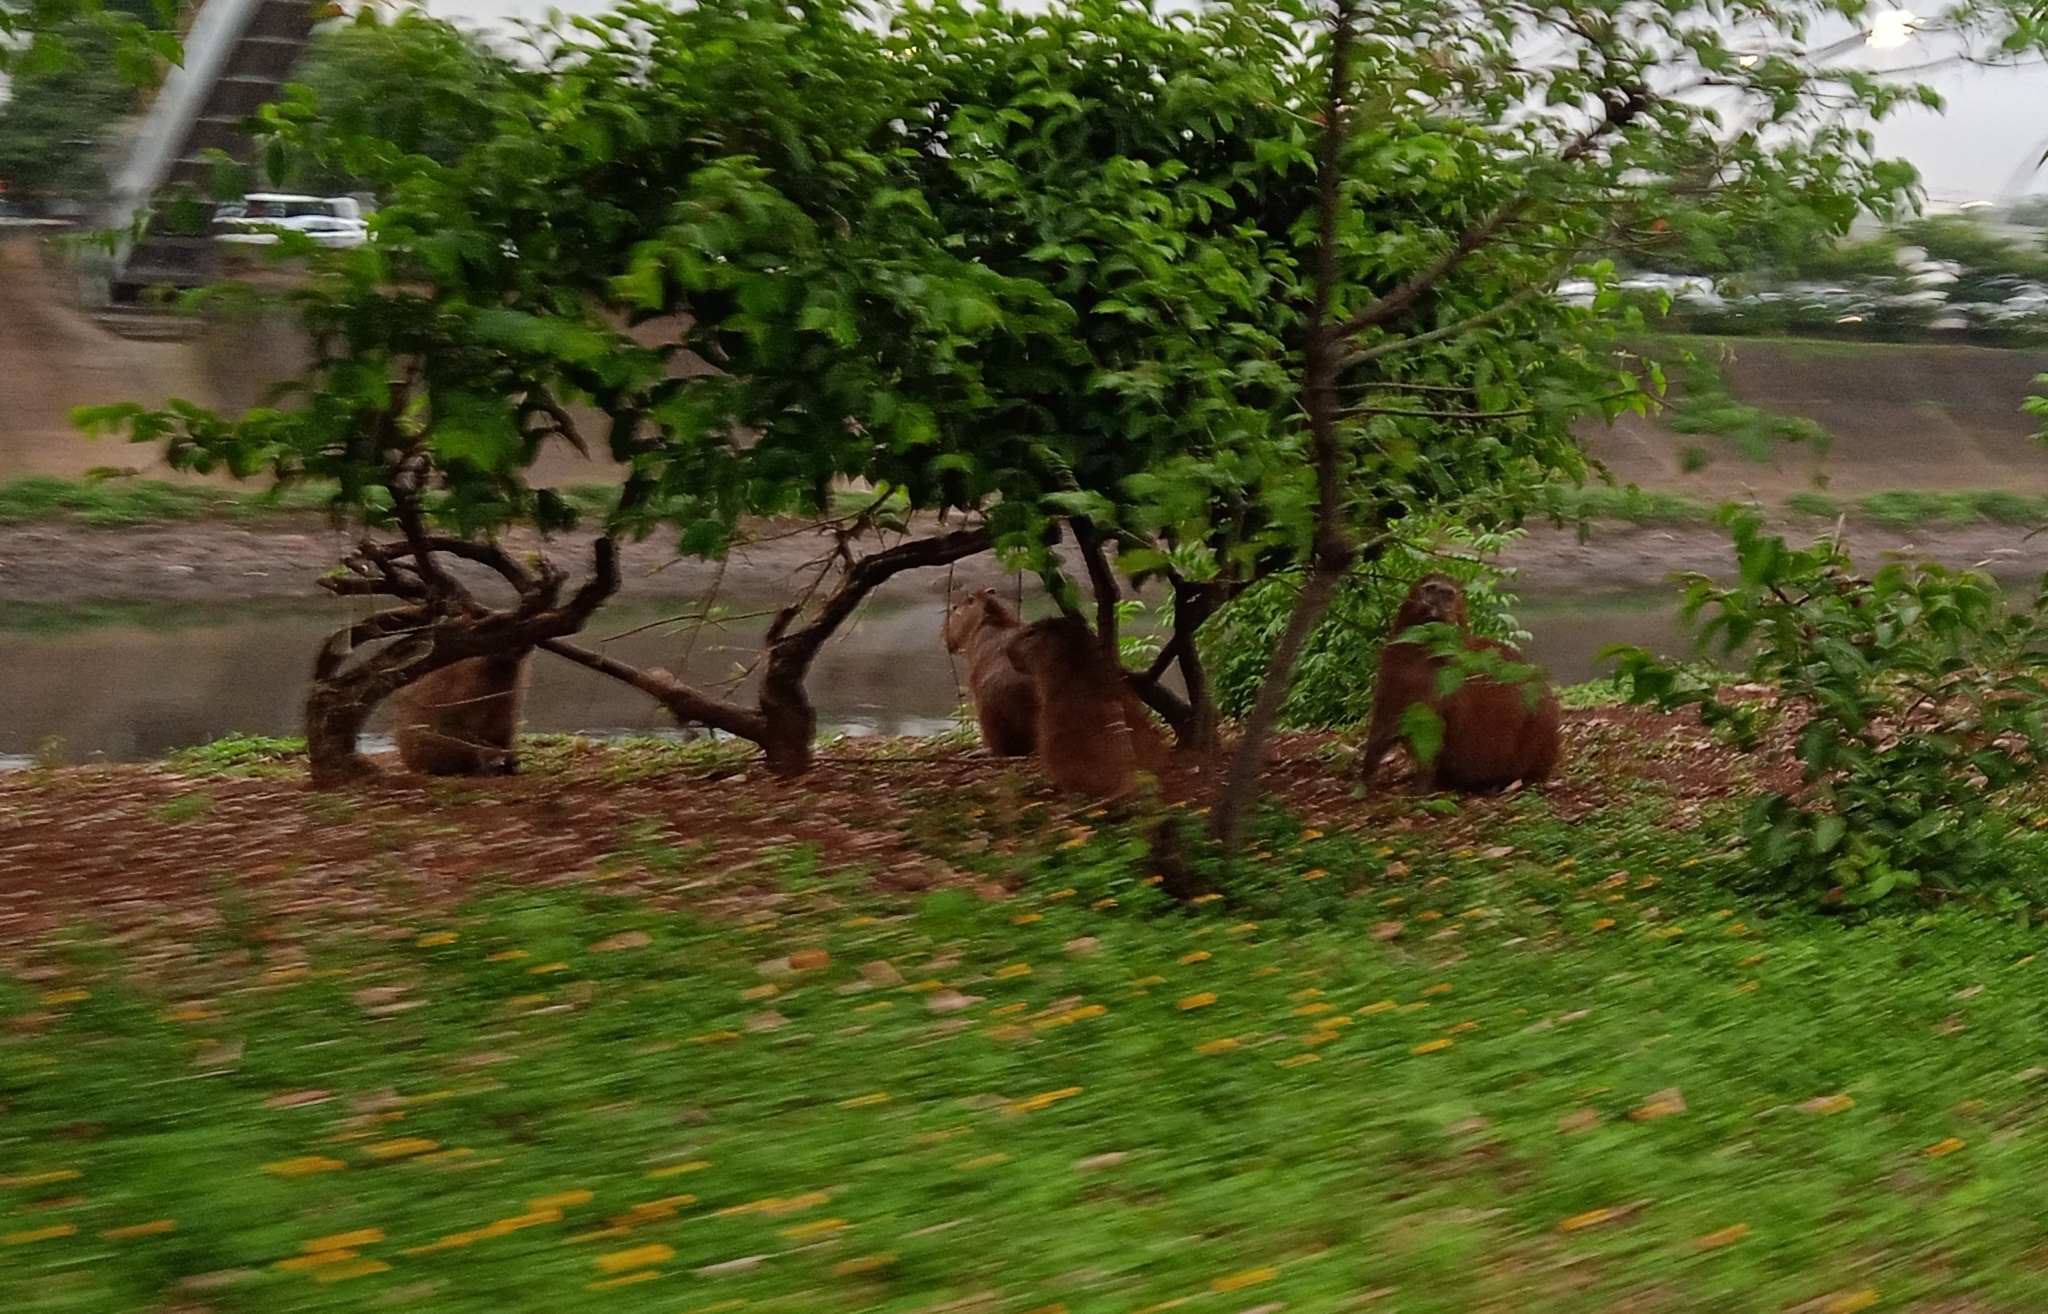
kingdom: Animalia
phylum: Chordata
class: Mammalia
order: Rodentia
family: Caviidae
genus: Hydrochoerus
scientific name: Hydrochoerus hydrochaeris
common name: Capybara
